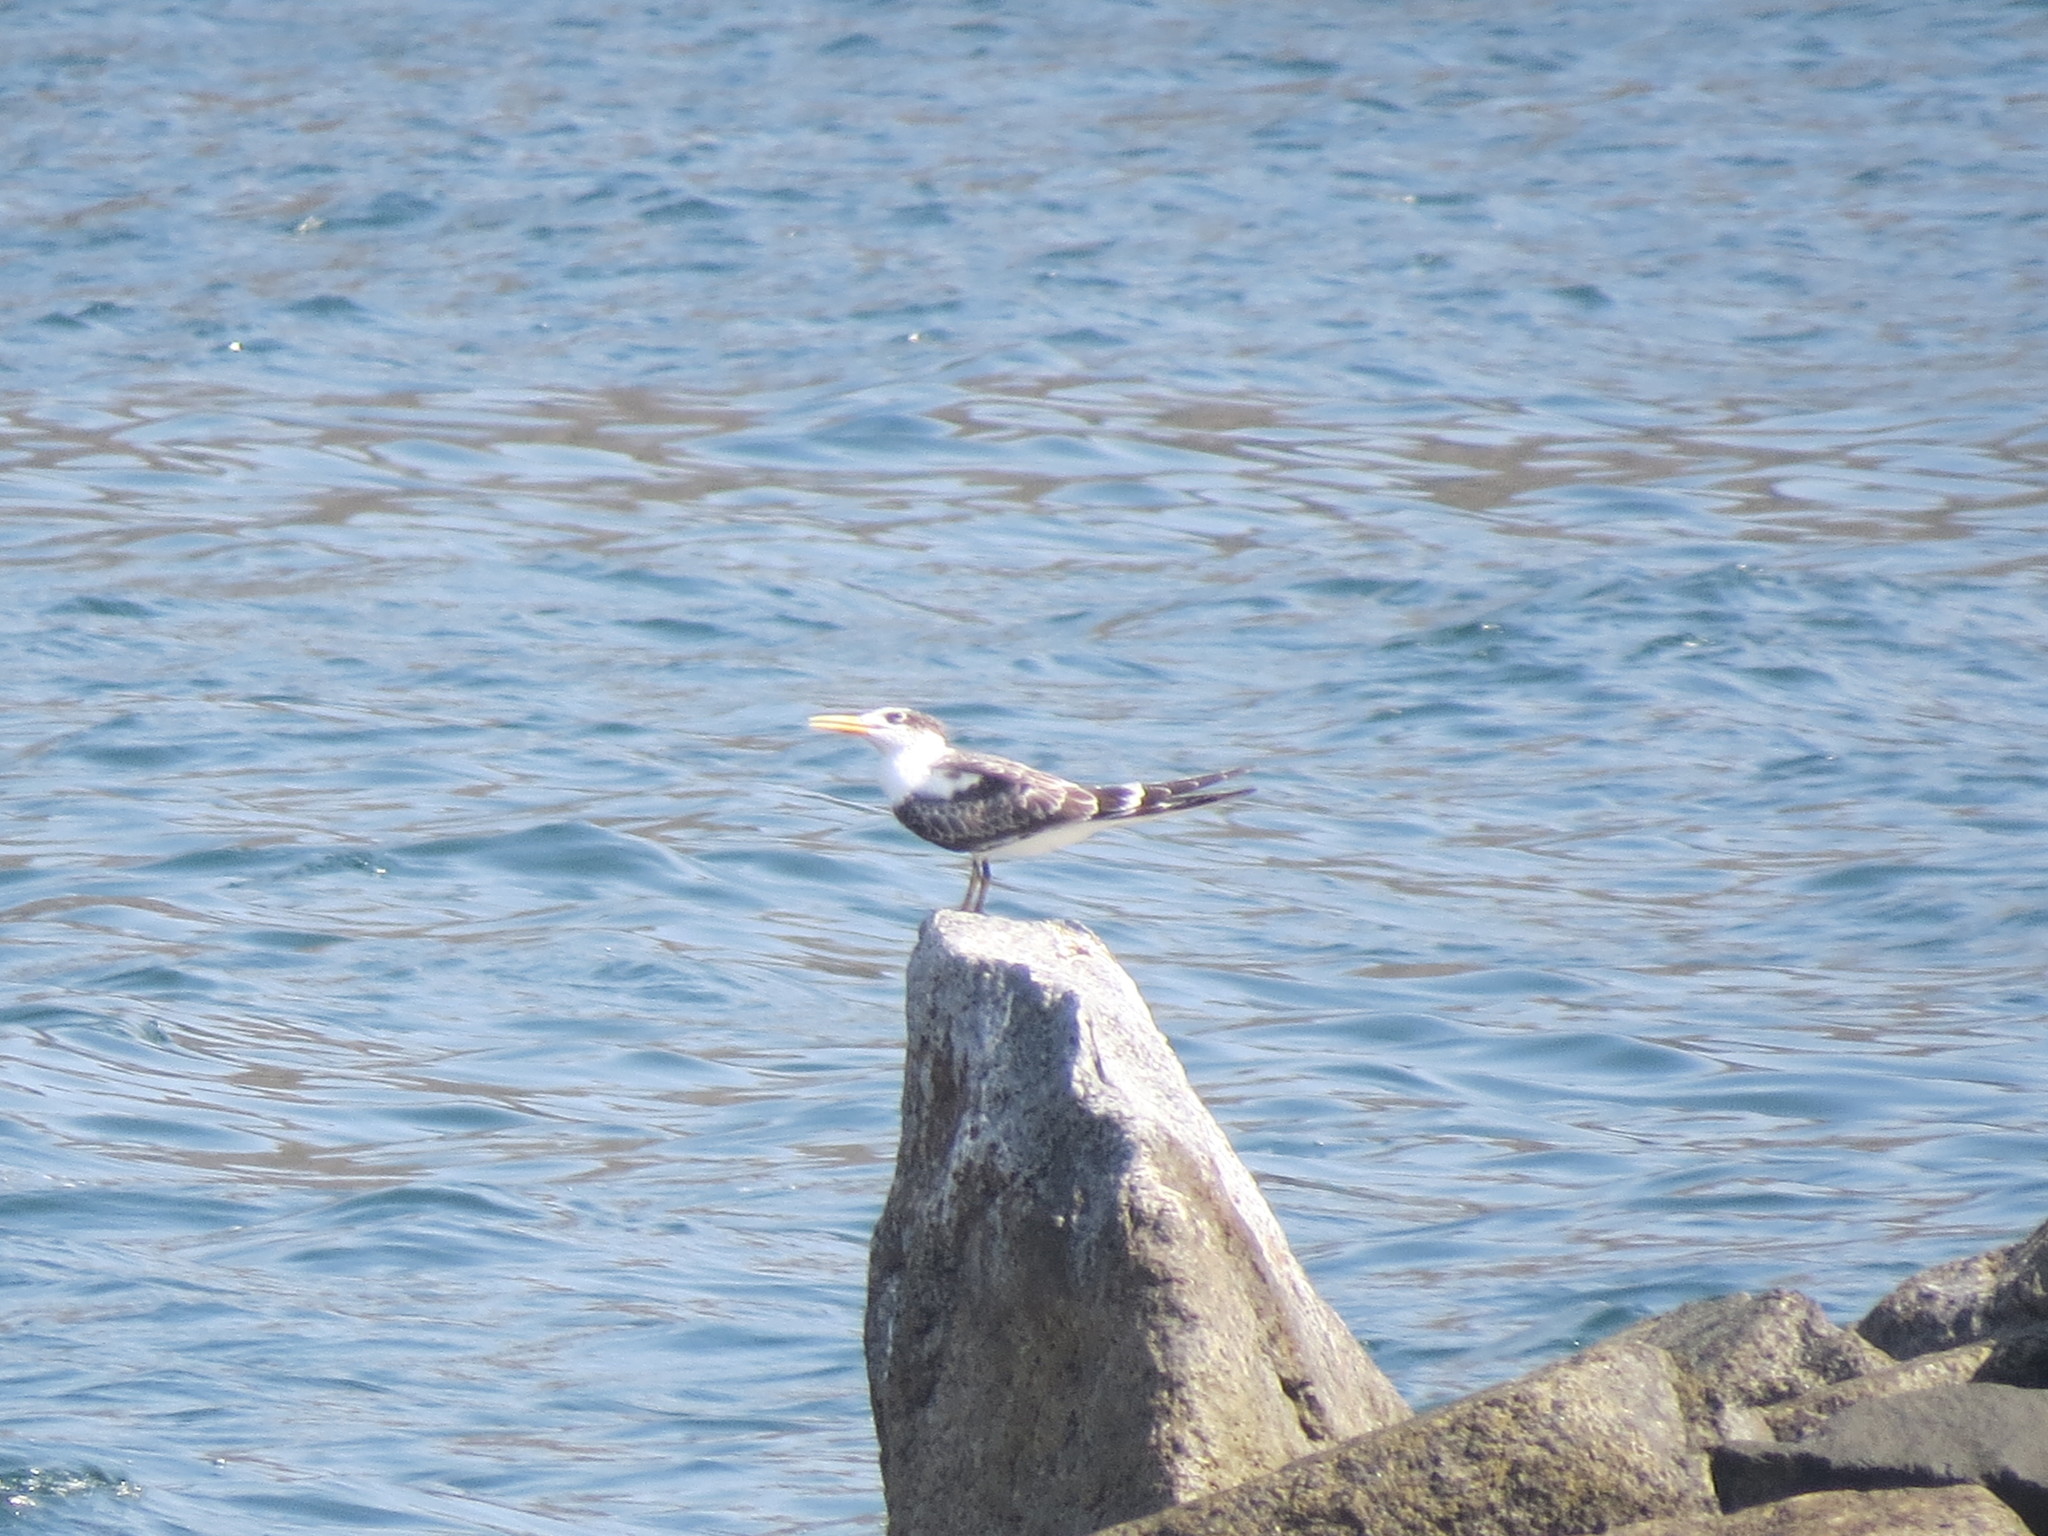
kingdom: Animalia
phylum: Chordata
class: Aves
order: Charadriiformes
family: Laridae
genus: Thalasseus
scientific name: Thalasseus bergii
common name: Greater crested tern
